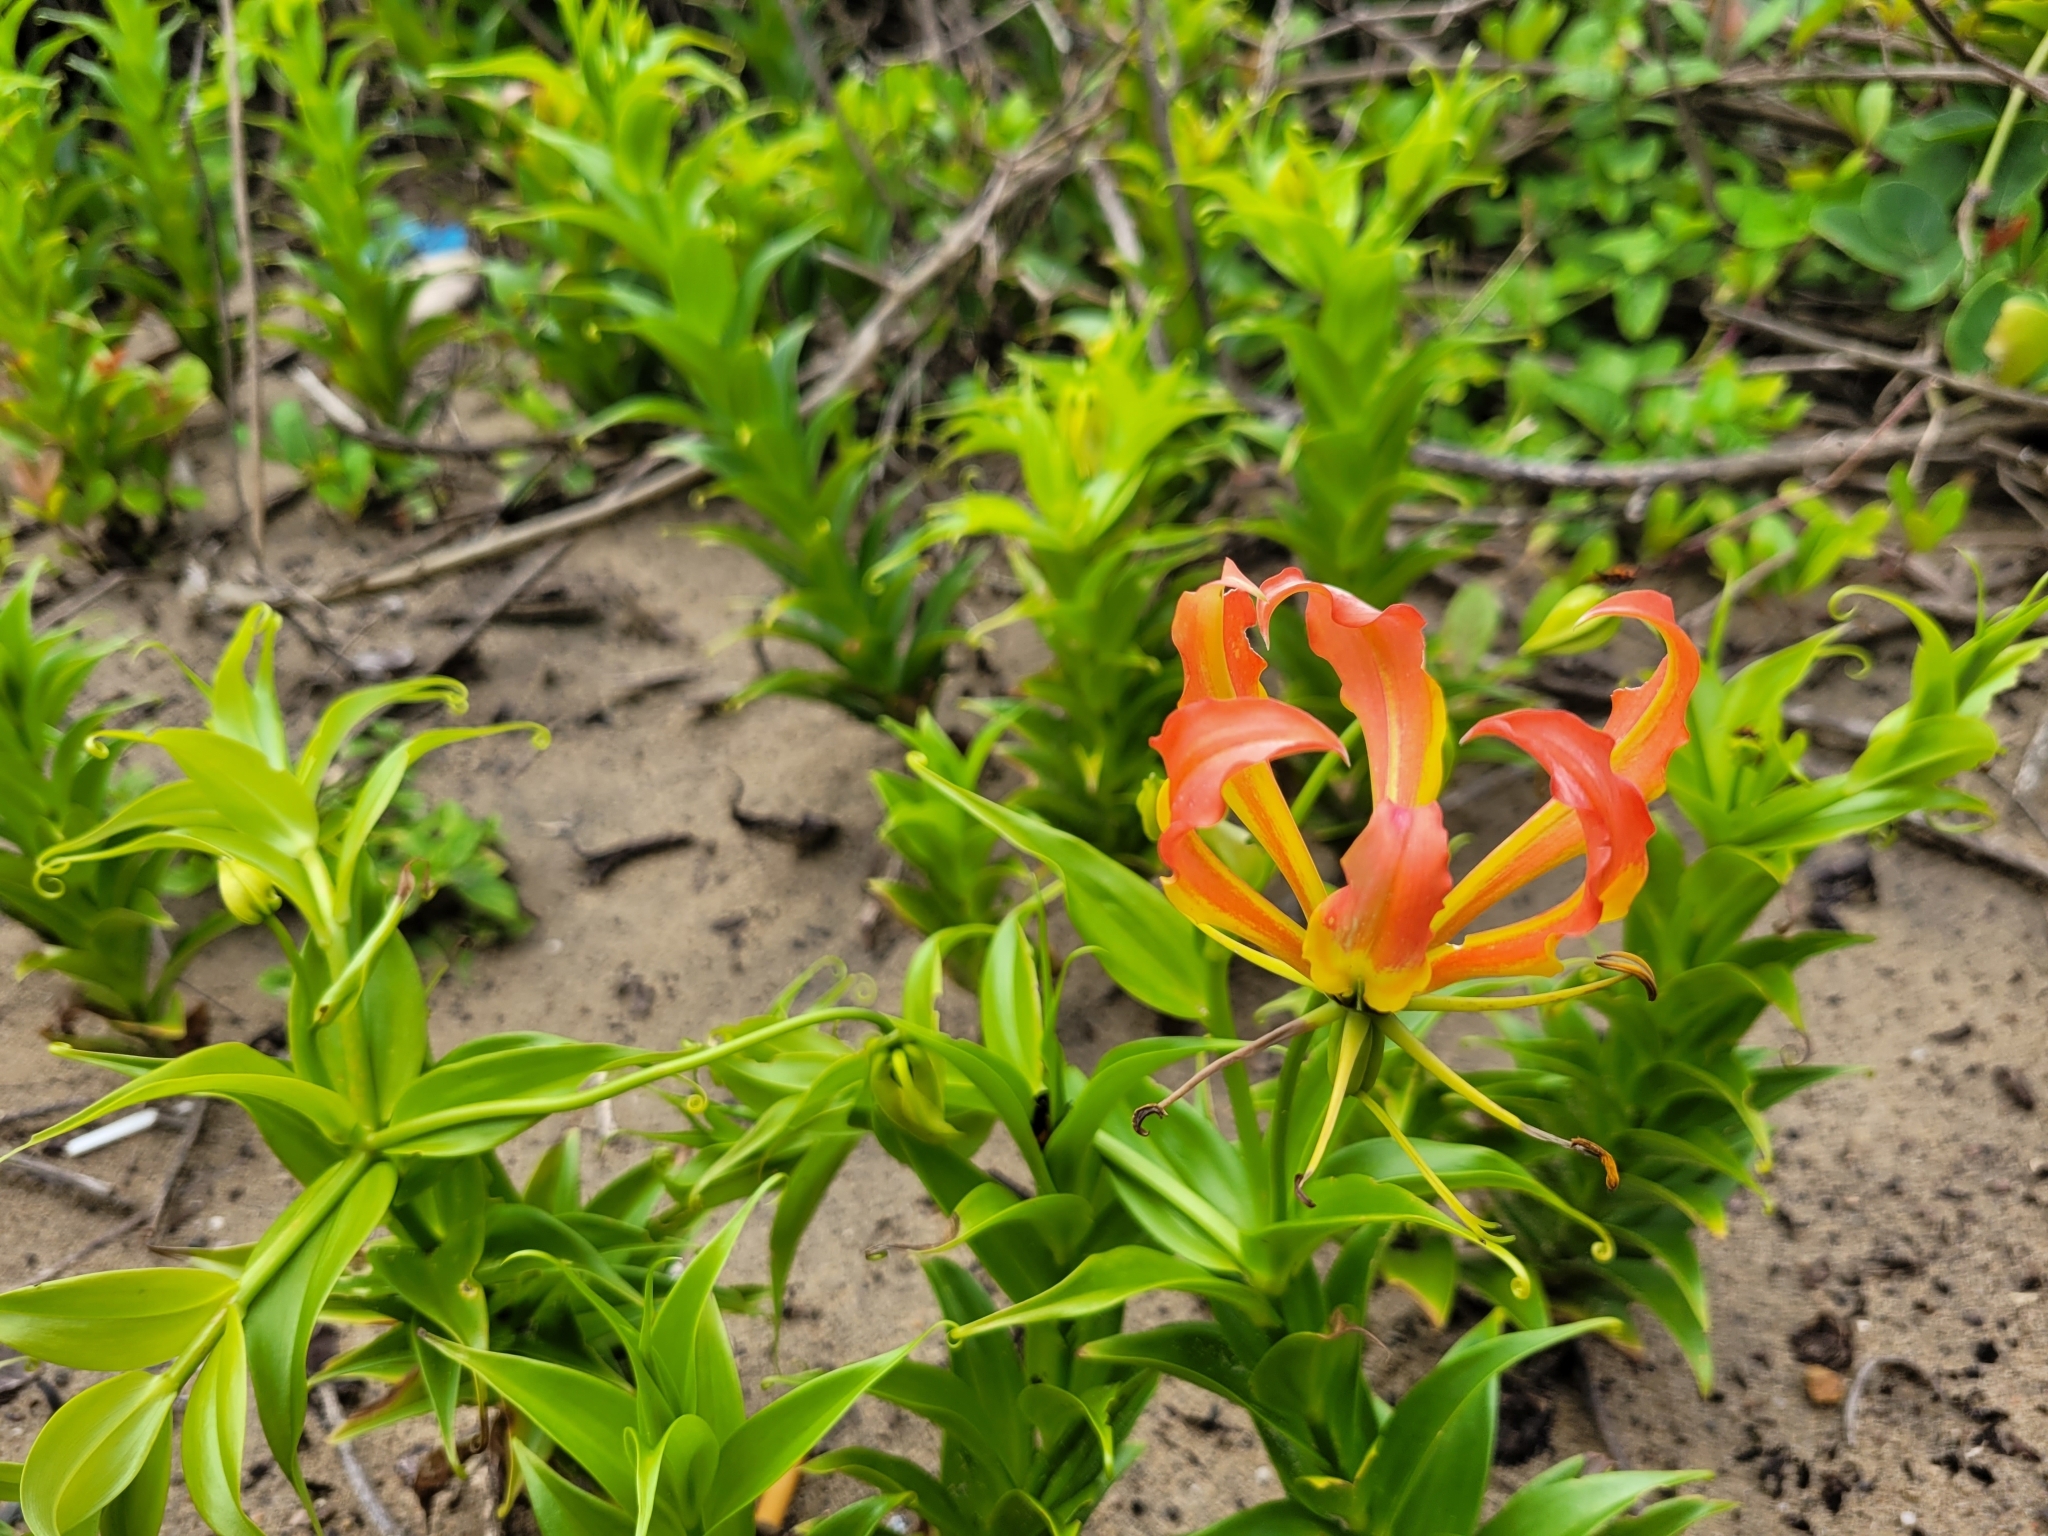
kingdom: Plantae
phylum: Tracheophyta
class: Liliopsida
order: Liliales
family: Colchicaceae
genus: Gloriosa
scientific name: Gloriosa superba
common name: Flame lily
